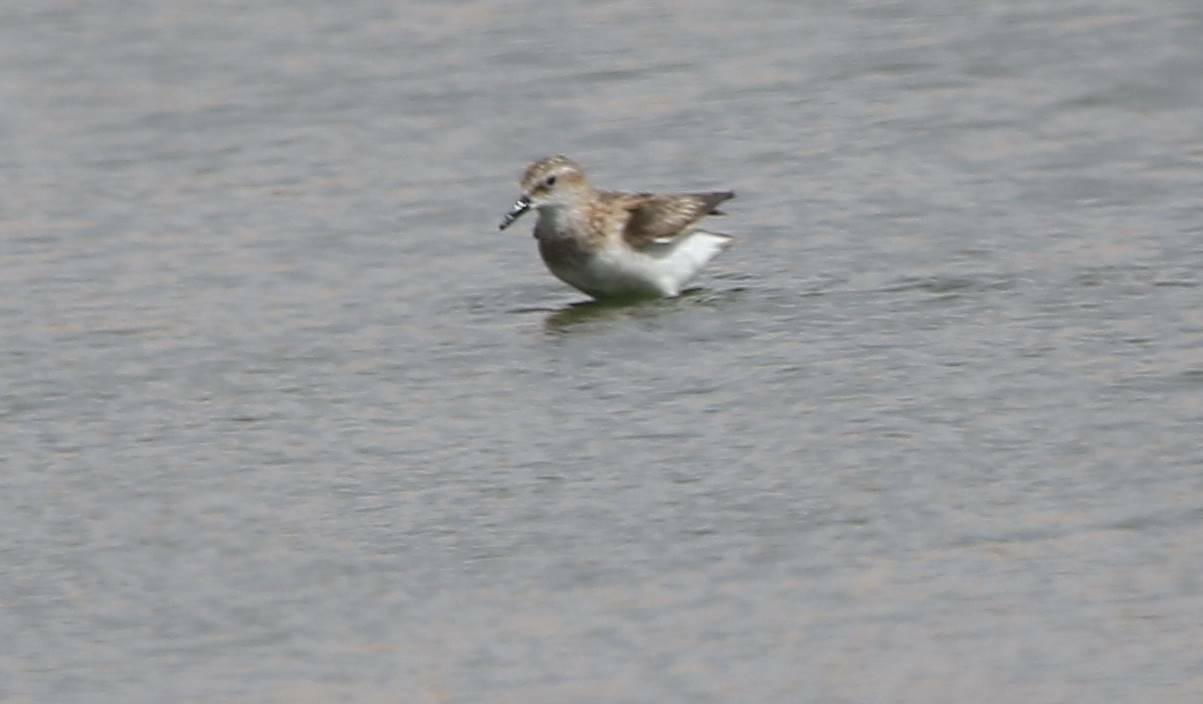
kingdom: Animalia
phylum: Chordata
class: Aves
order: Charadriiformes
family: Scolopacidae
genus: Calidris
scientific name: Calidris minuta
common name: Little stint
